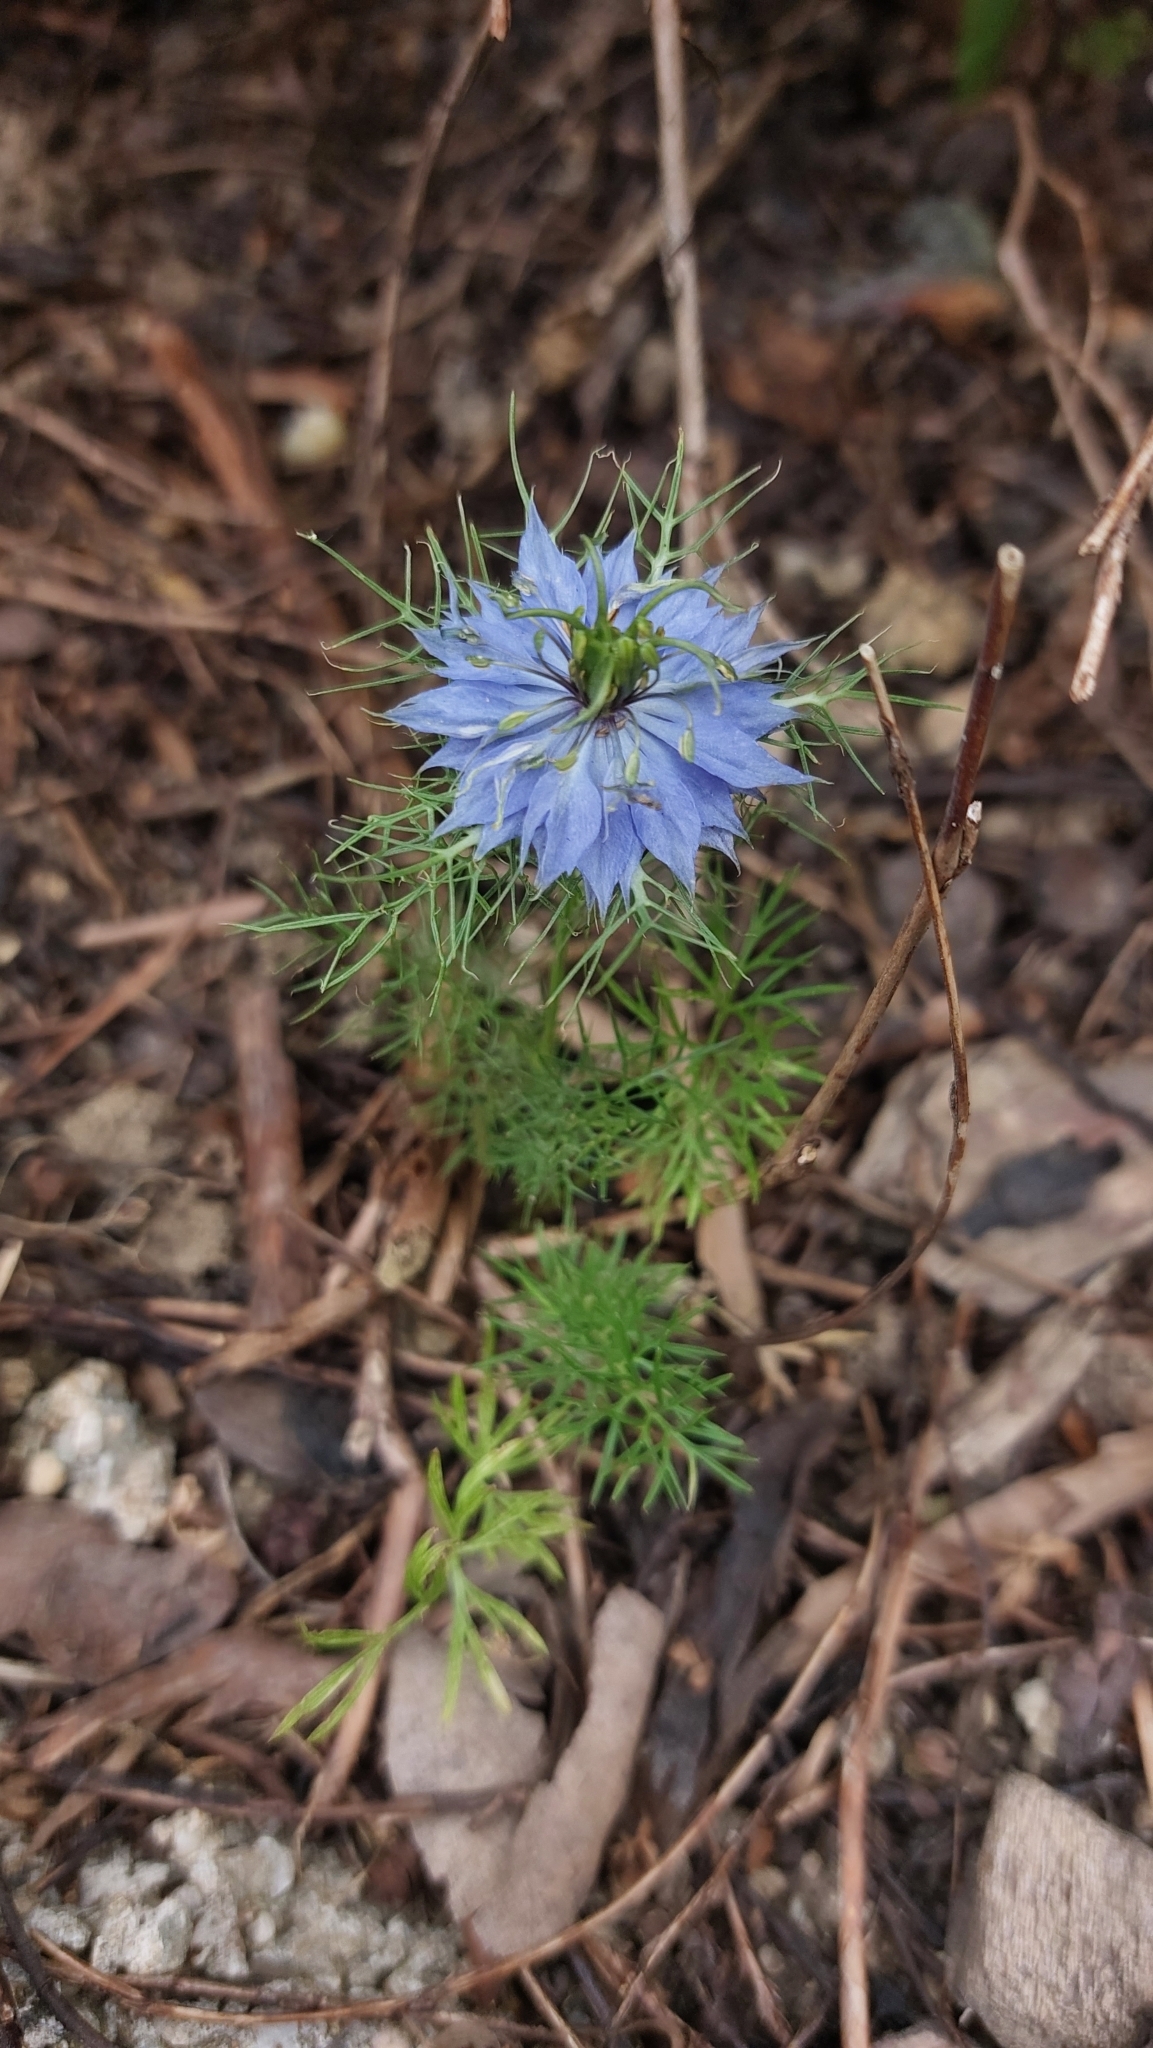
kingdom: Plantae
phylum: Tracheophyta
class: Magnoliopsida
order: Ranunculales
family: Ranunculaceae
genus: Nigella
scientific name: Nigella damascena
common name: Love-in-a-mist
